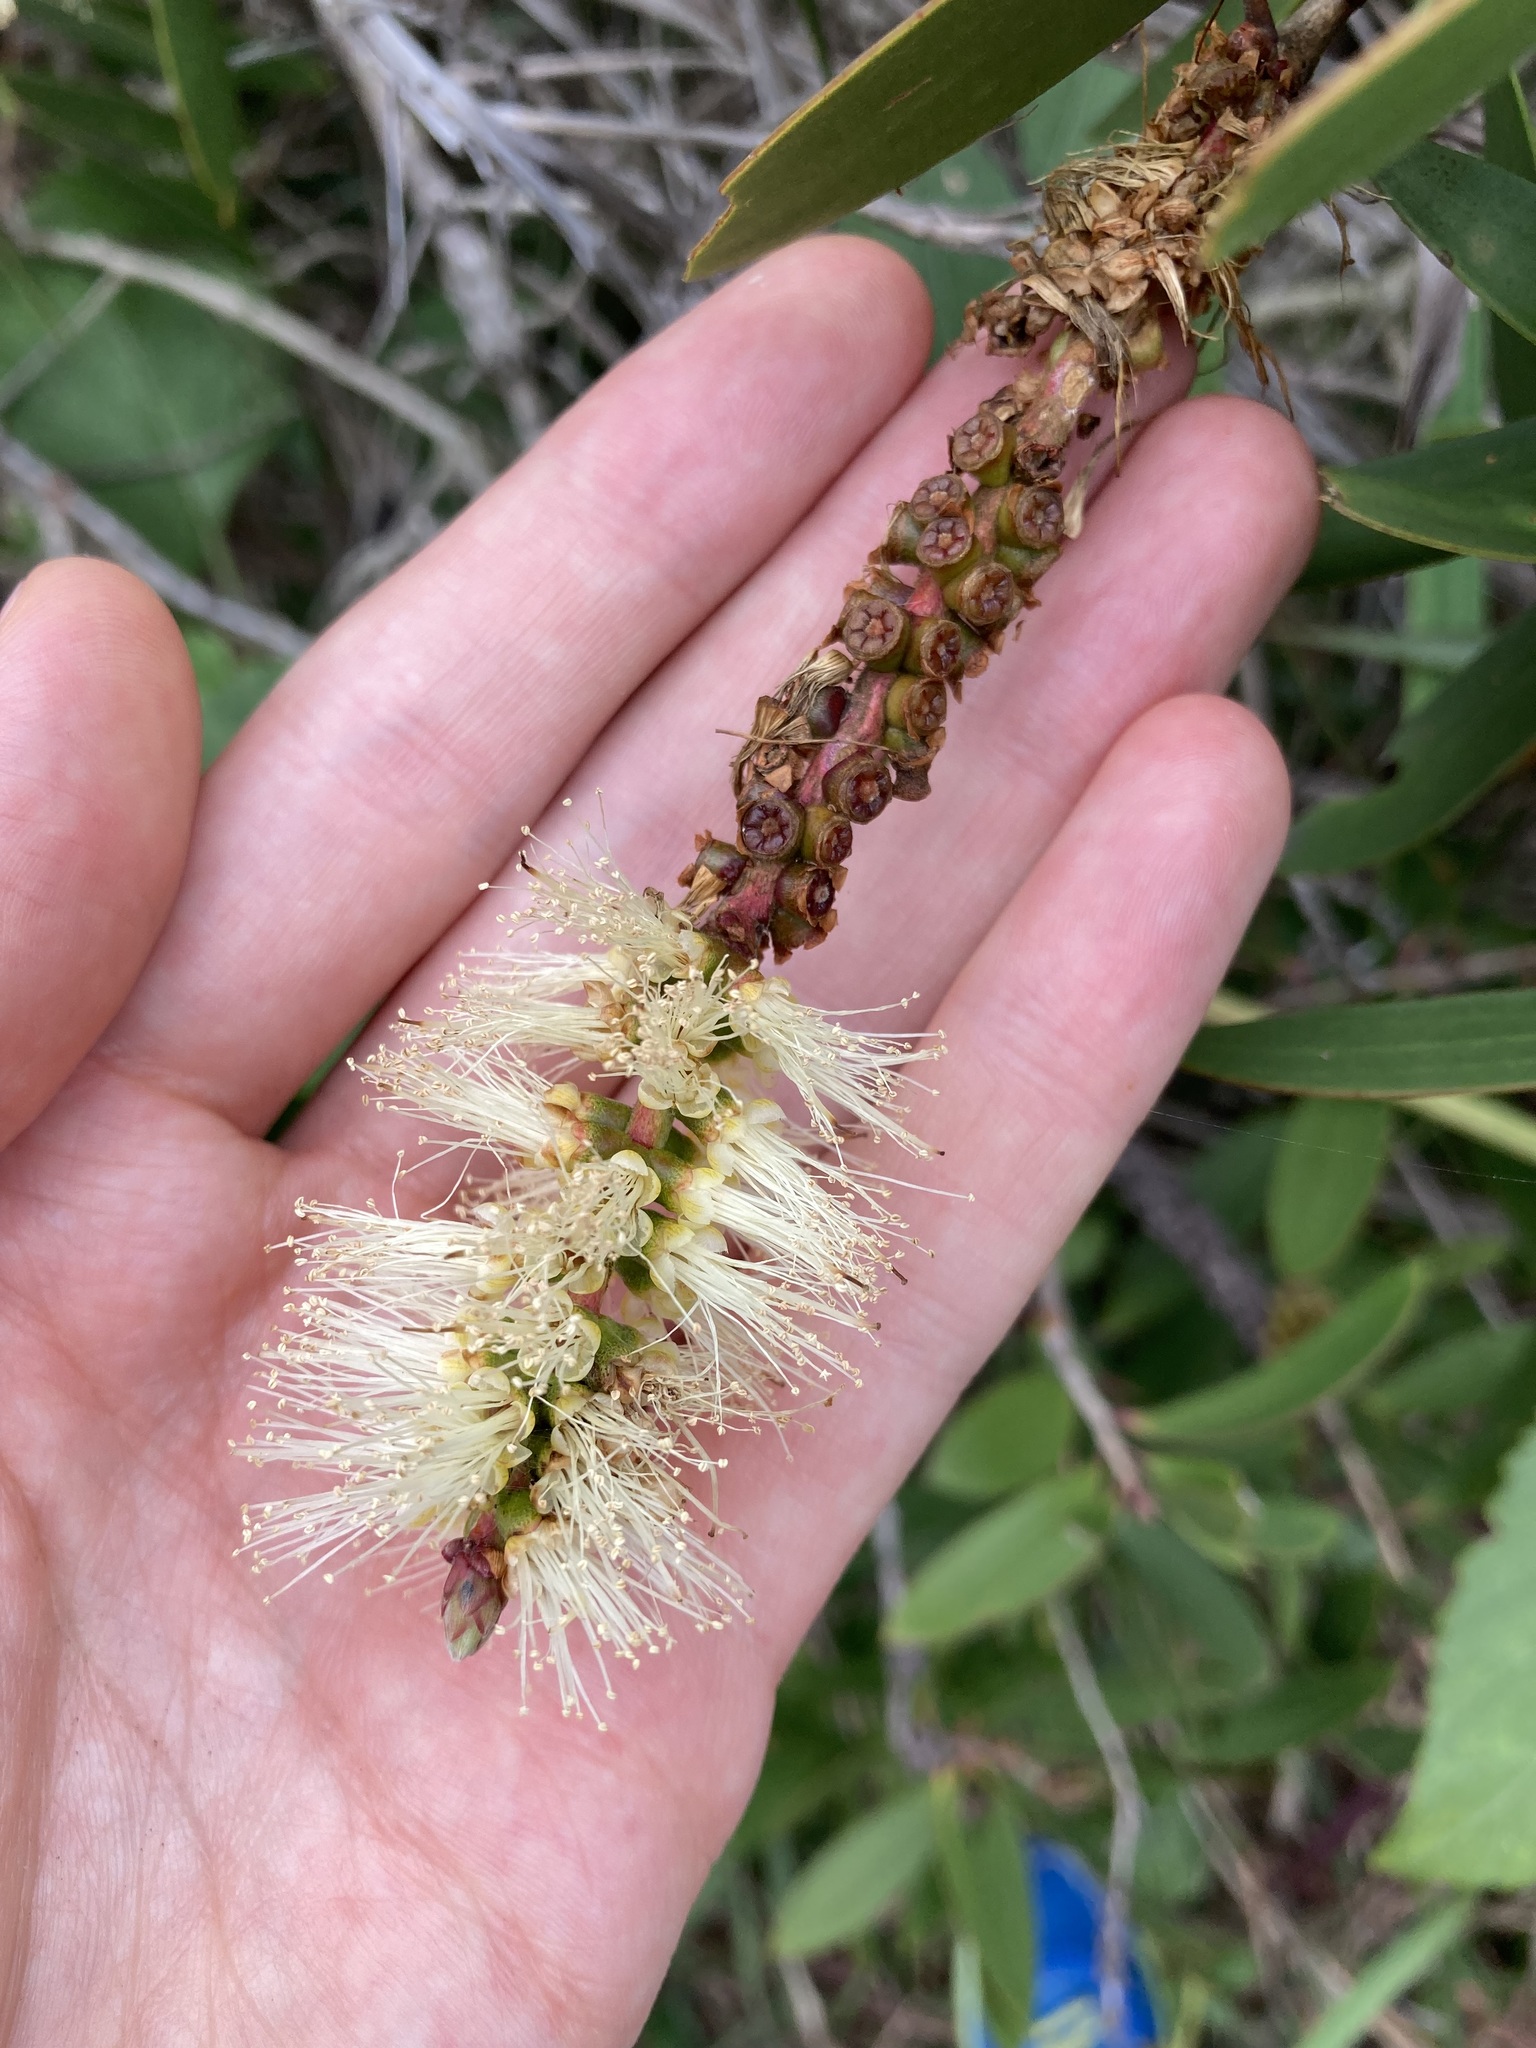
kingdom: Plantae
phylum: Tracheophyta
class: Magnoliopsida
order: Myrtales
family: Myrtaceae
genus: Melaleuca
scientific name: Melaleuca quinquenervia
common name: Punktree
